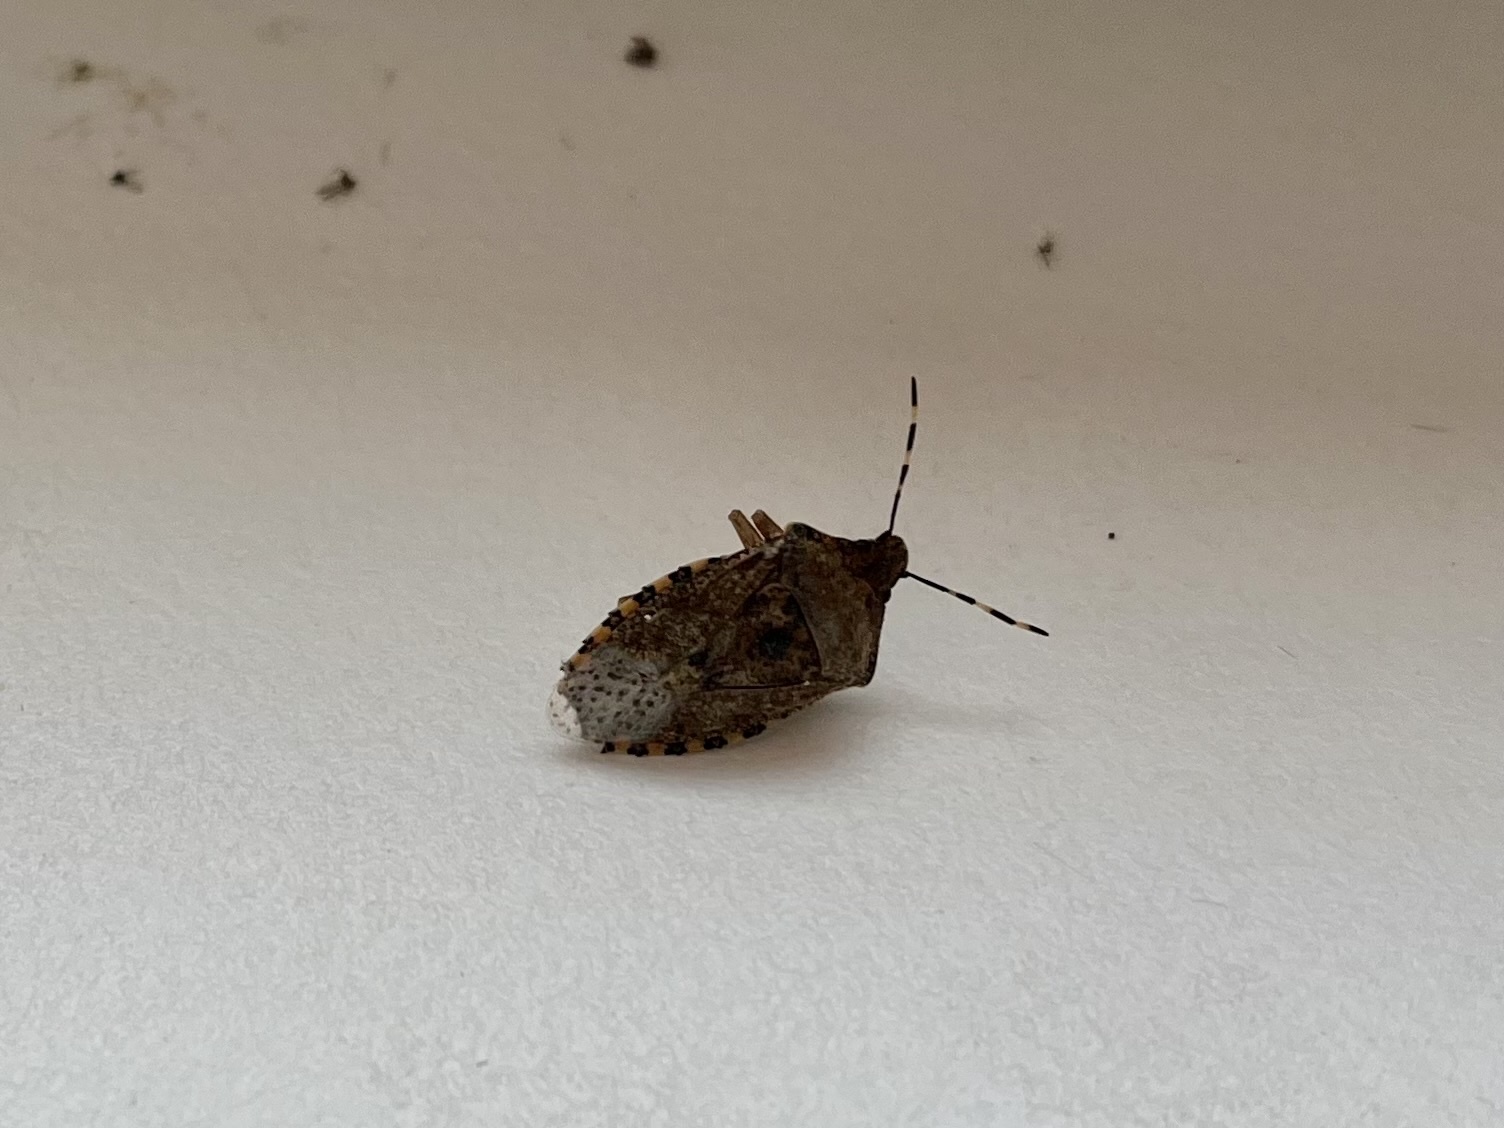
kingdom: Animalia
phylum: Arthropoda
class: Insecta
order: Hemiptera
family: Pentatomidae
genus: Rhaphigaster
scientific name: Rhaphigaster nebulosa
